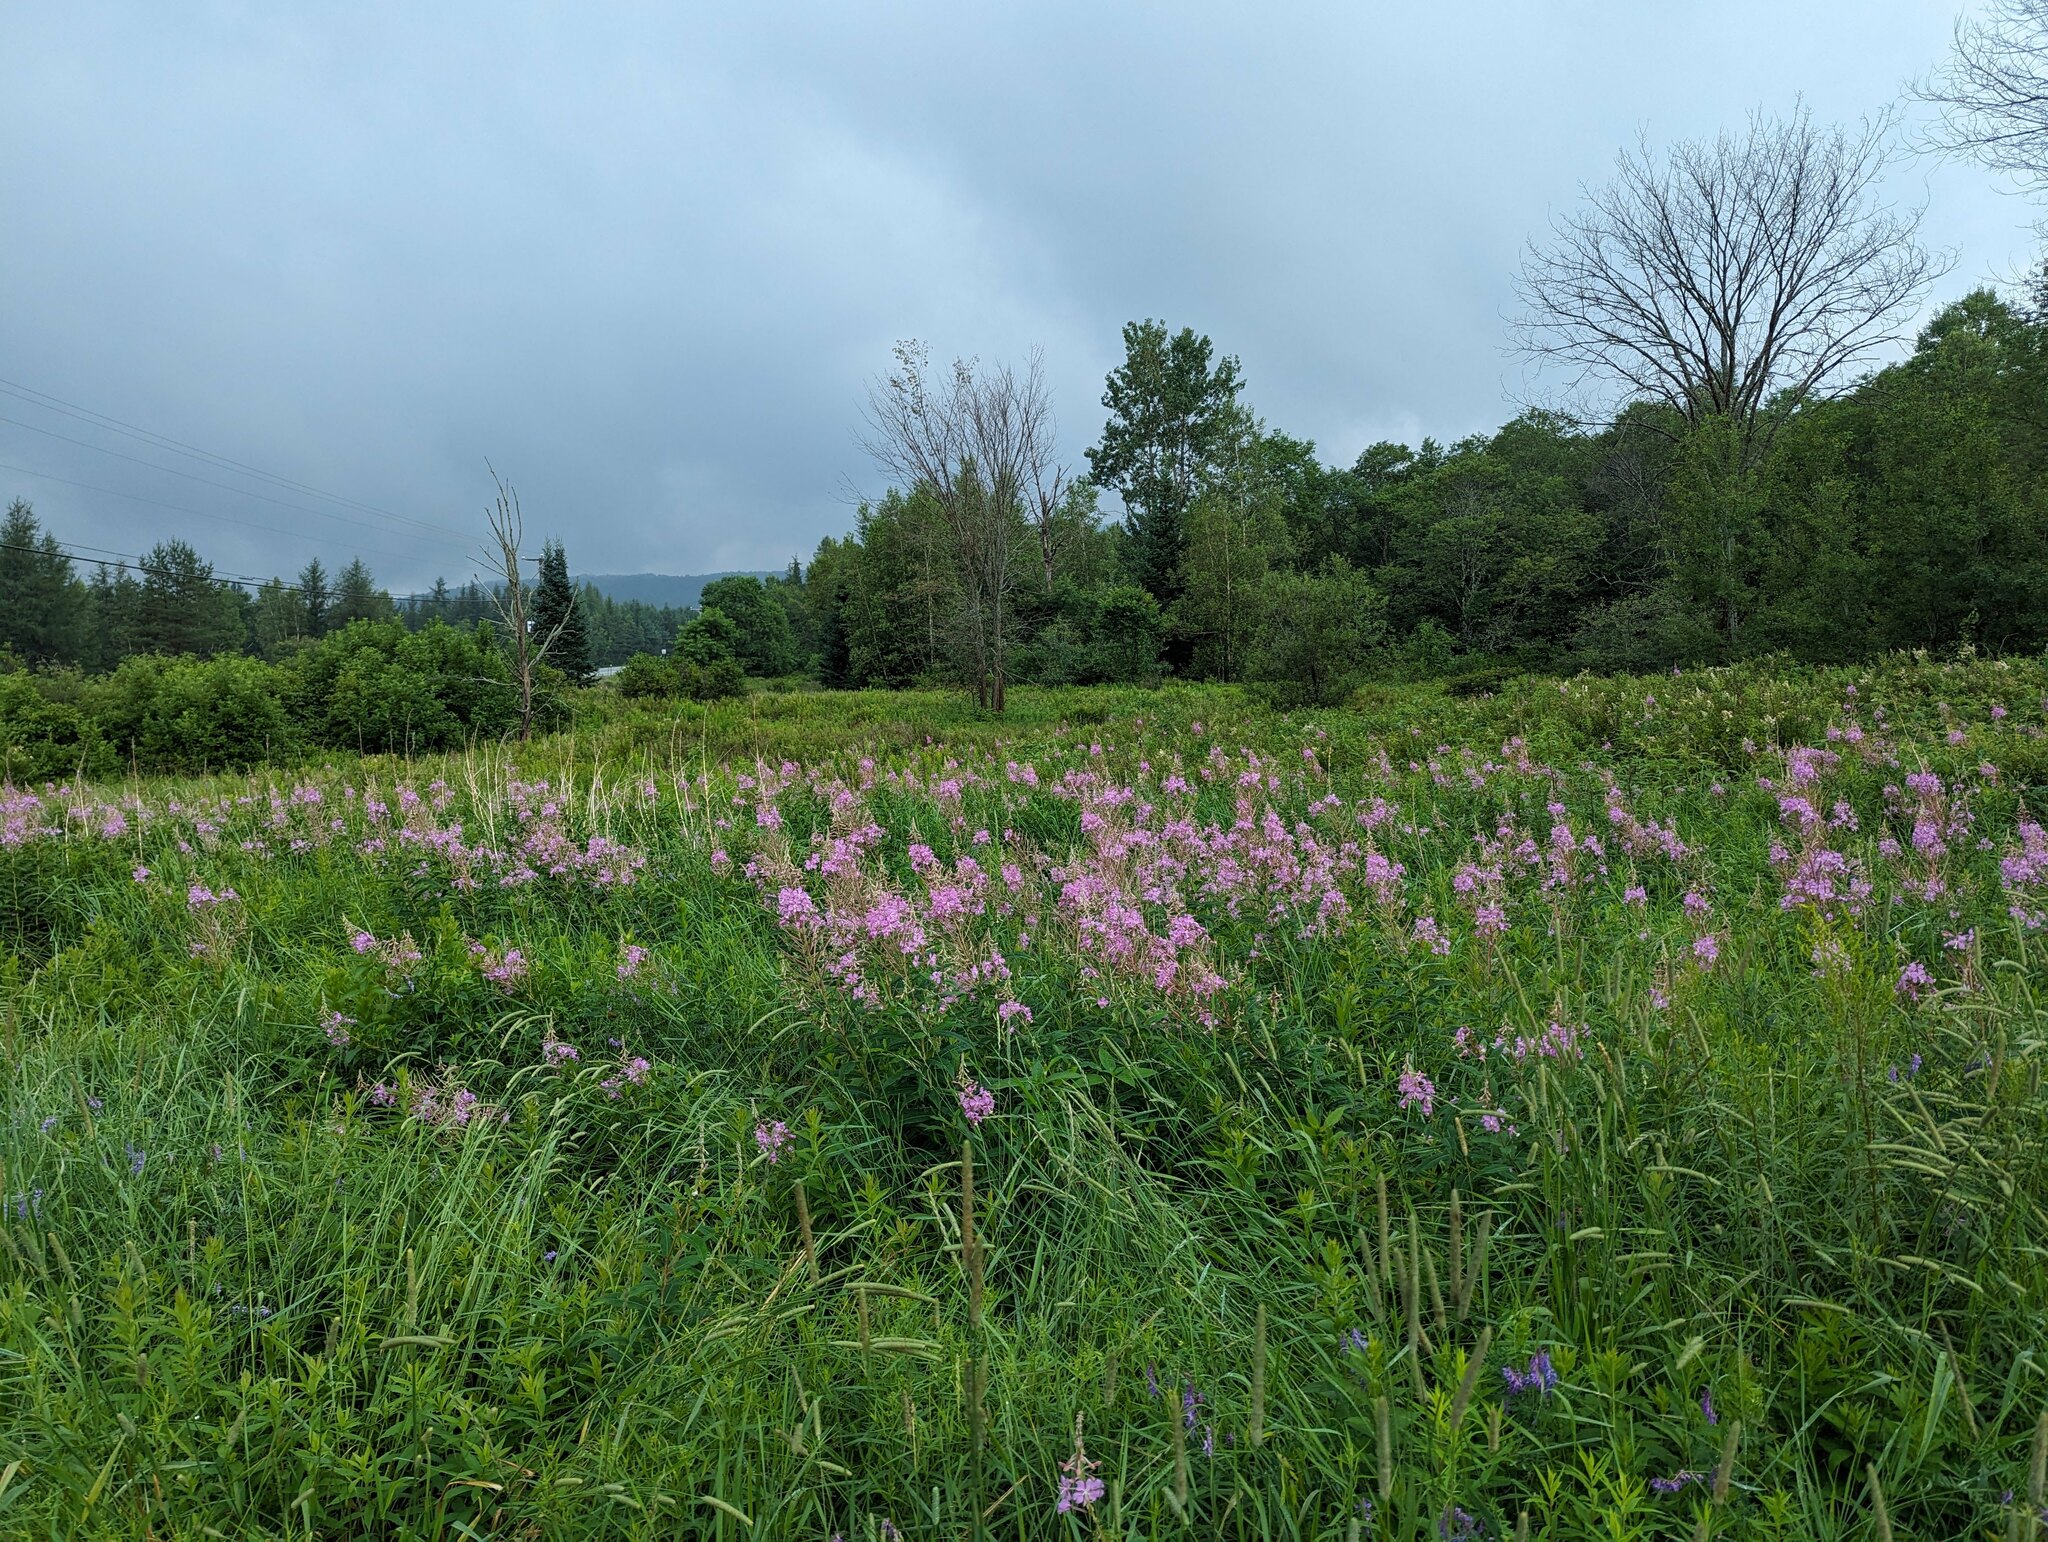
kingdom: Plantae
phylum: Tracheophyta
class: Magnoliopsida
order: Myrtales
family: Onagraceae
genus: Chamaenerion
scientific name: Chamaenerion angustifolium
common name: Fireweed
